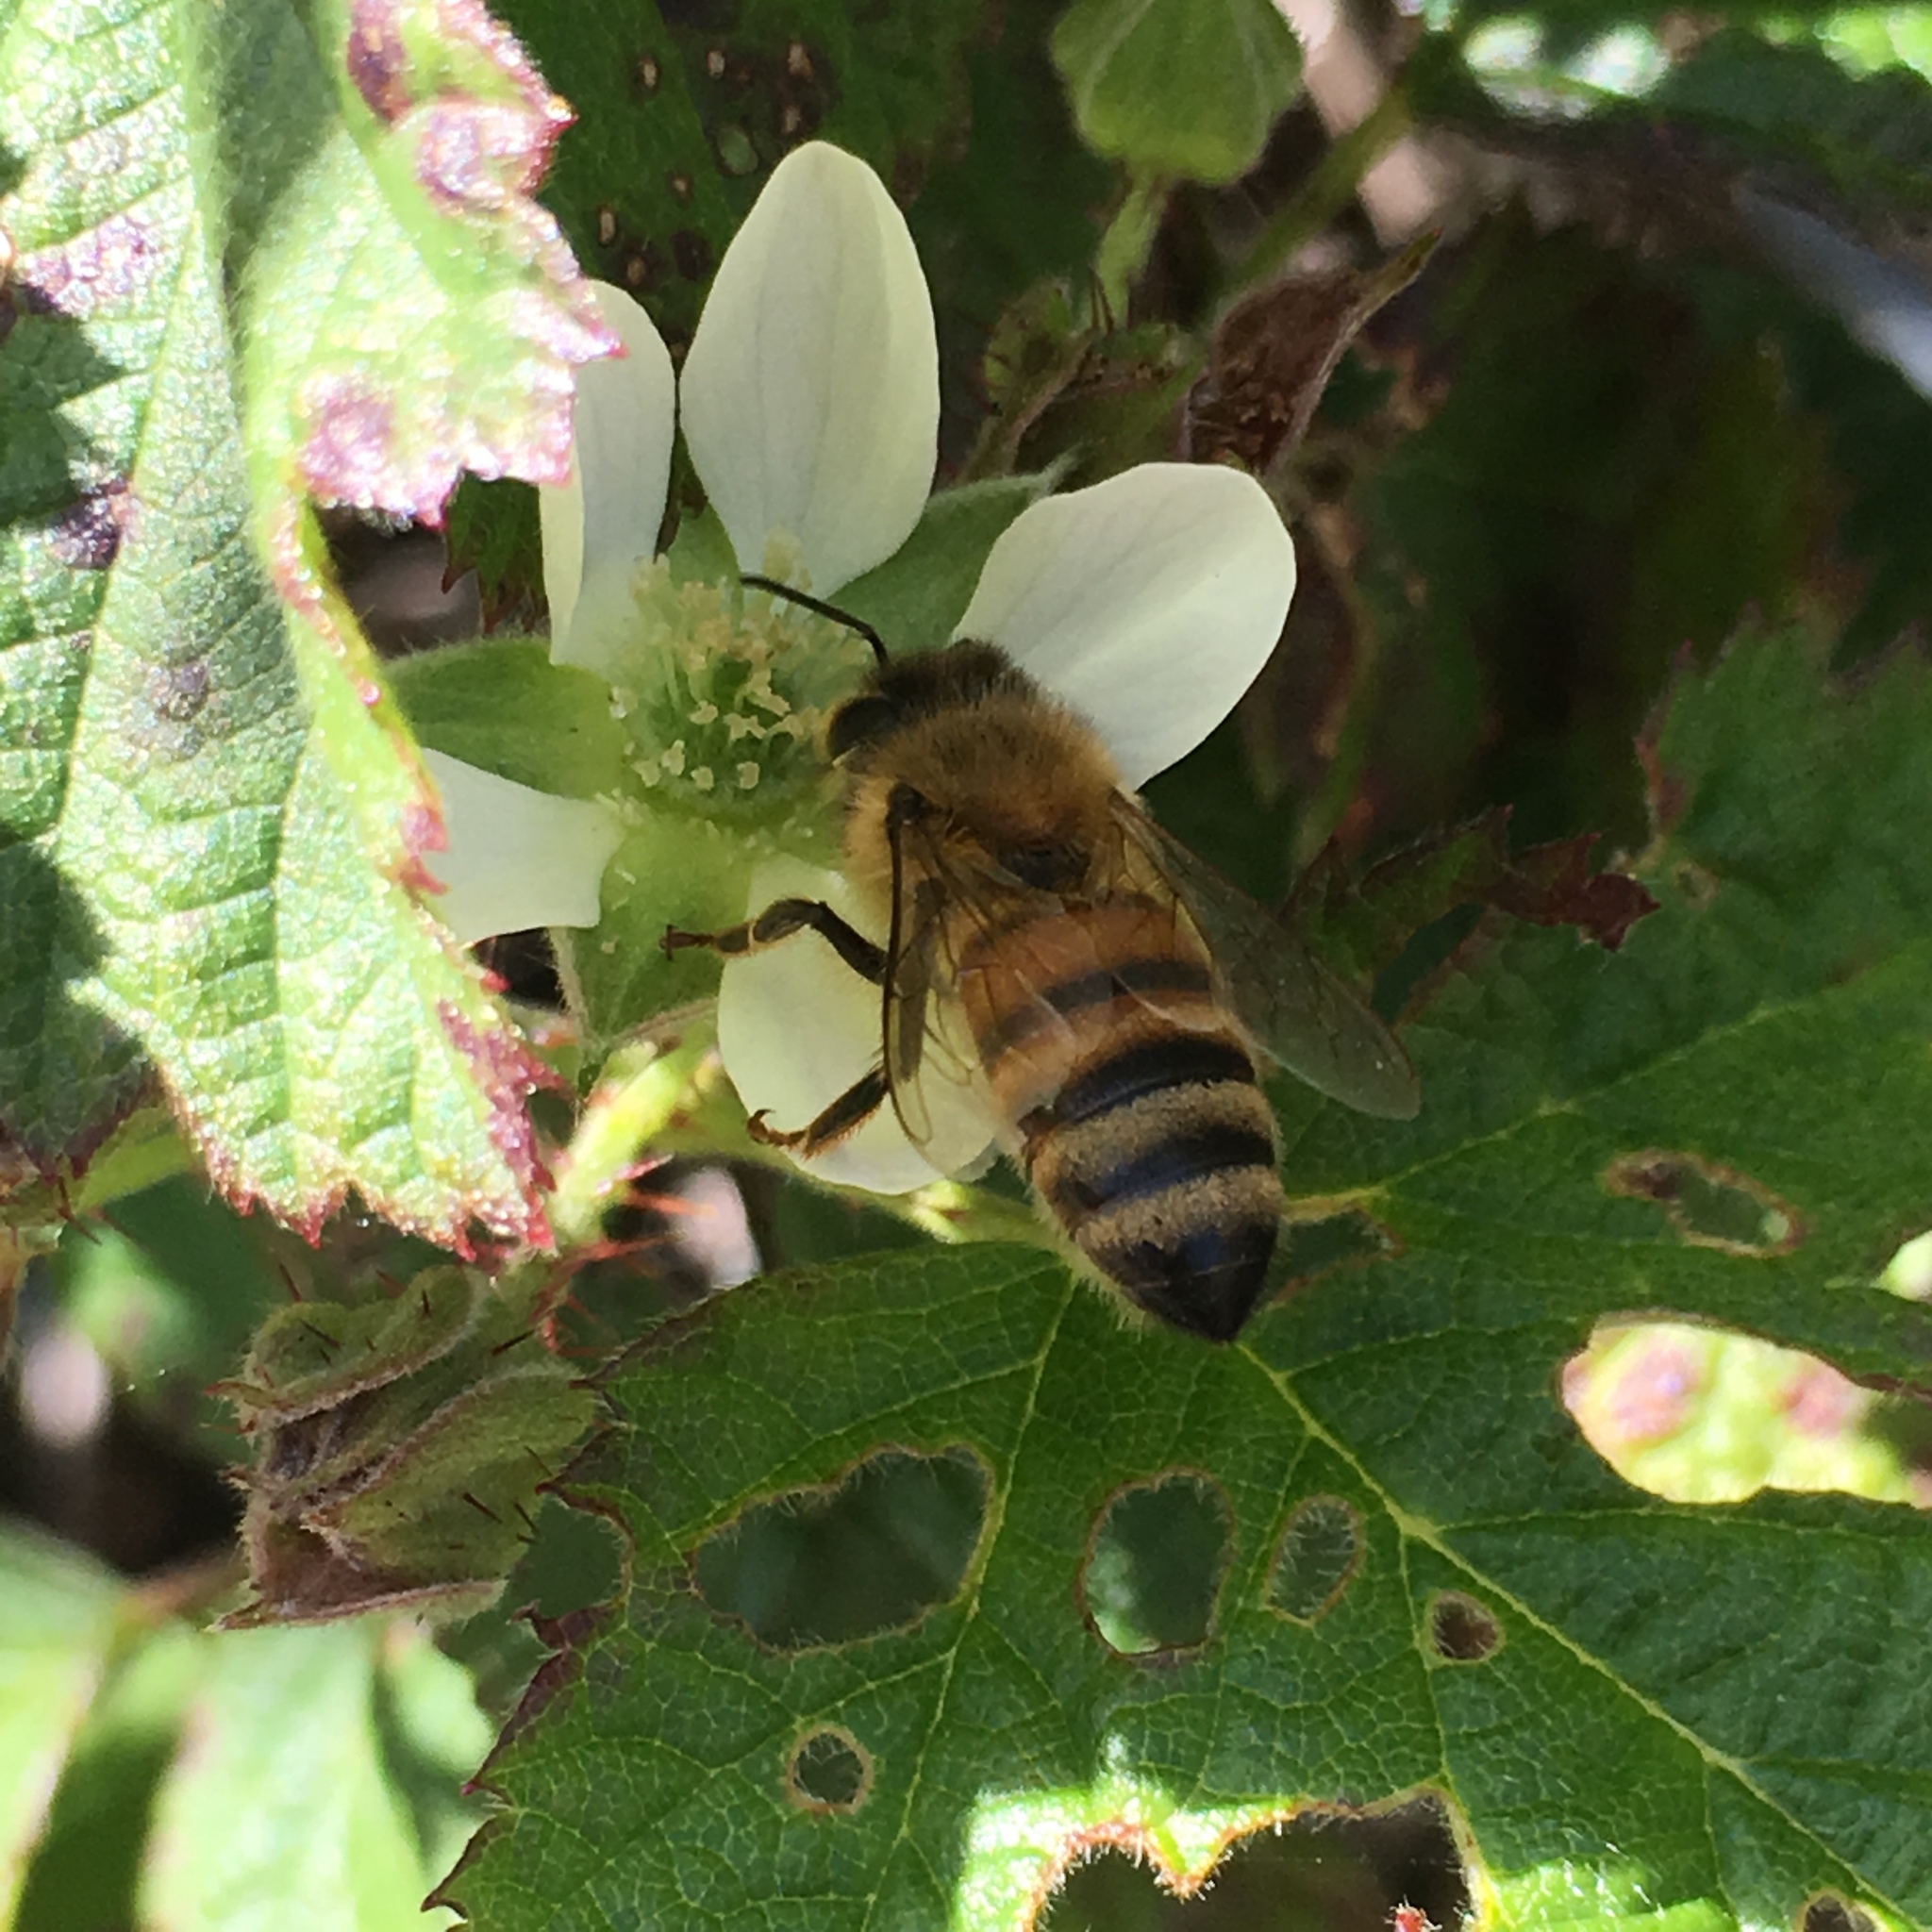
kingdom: Animalia
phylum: Arthropoda
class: Insecta
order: Hymenoptera
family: Apidae
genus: Apis
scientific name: Apis mellifera
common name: Honey bee
